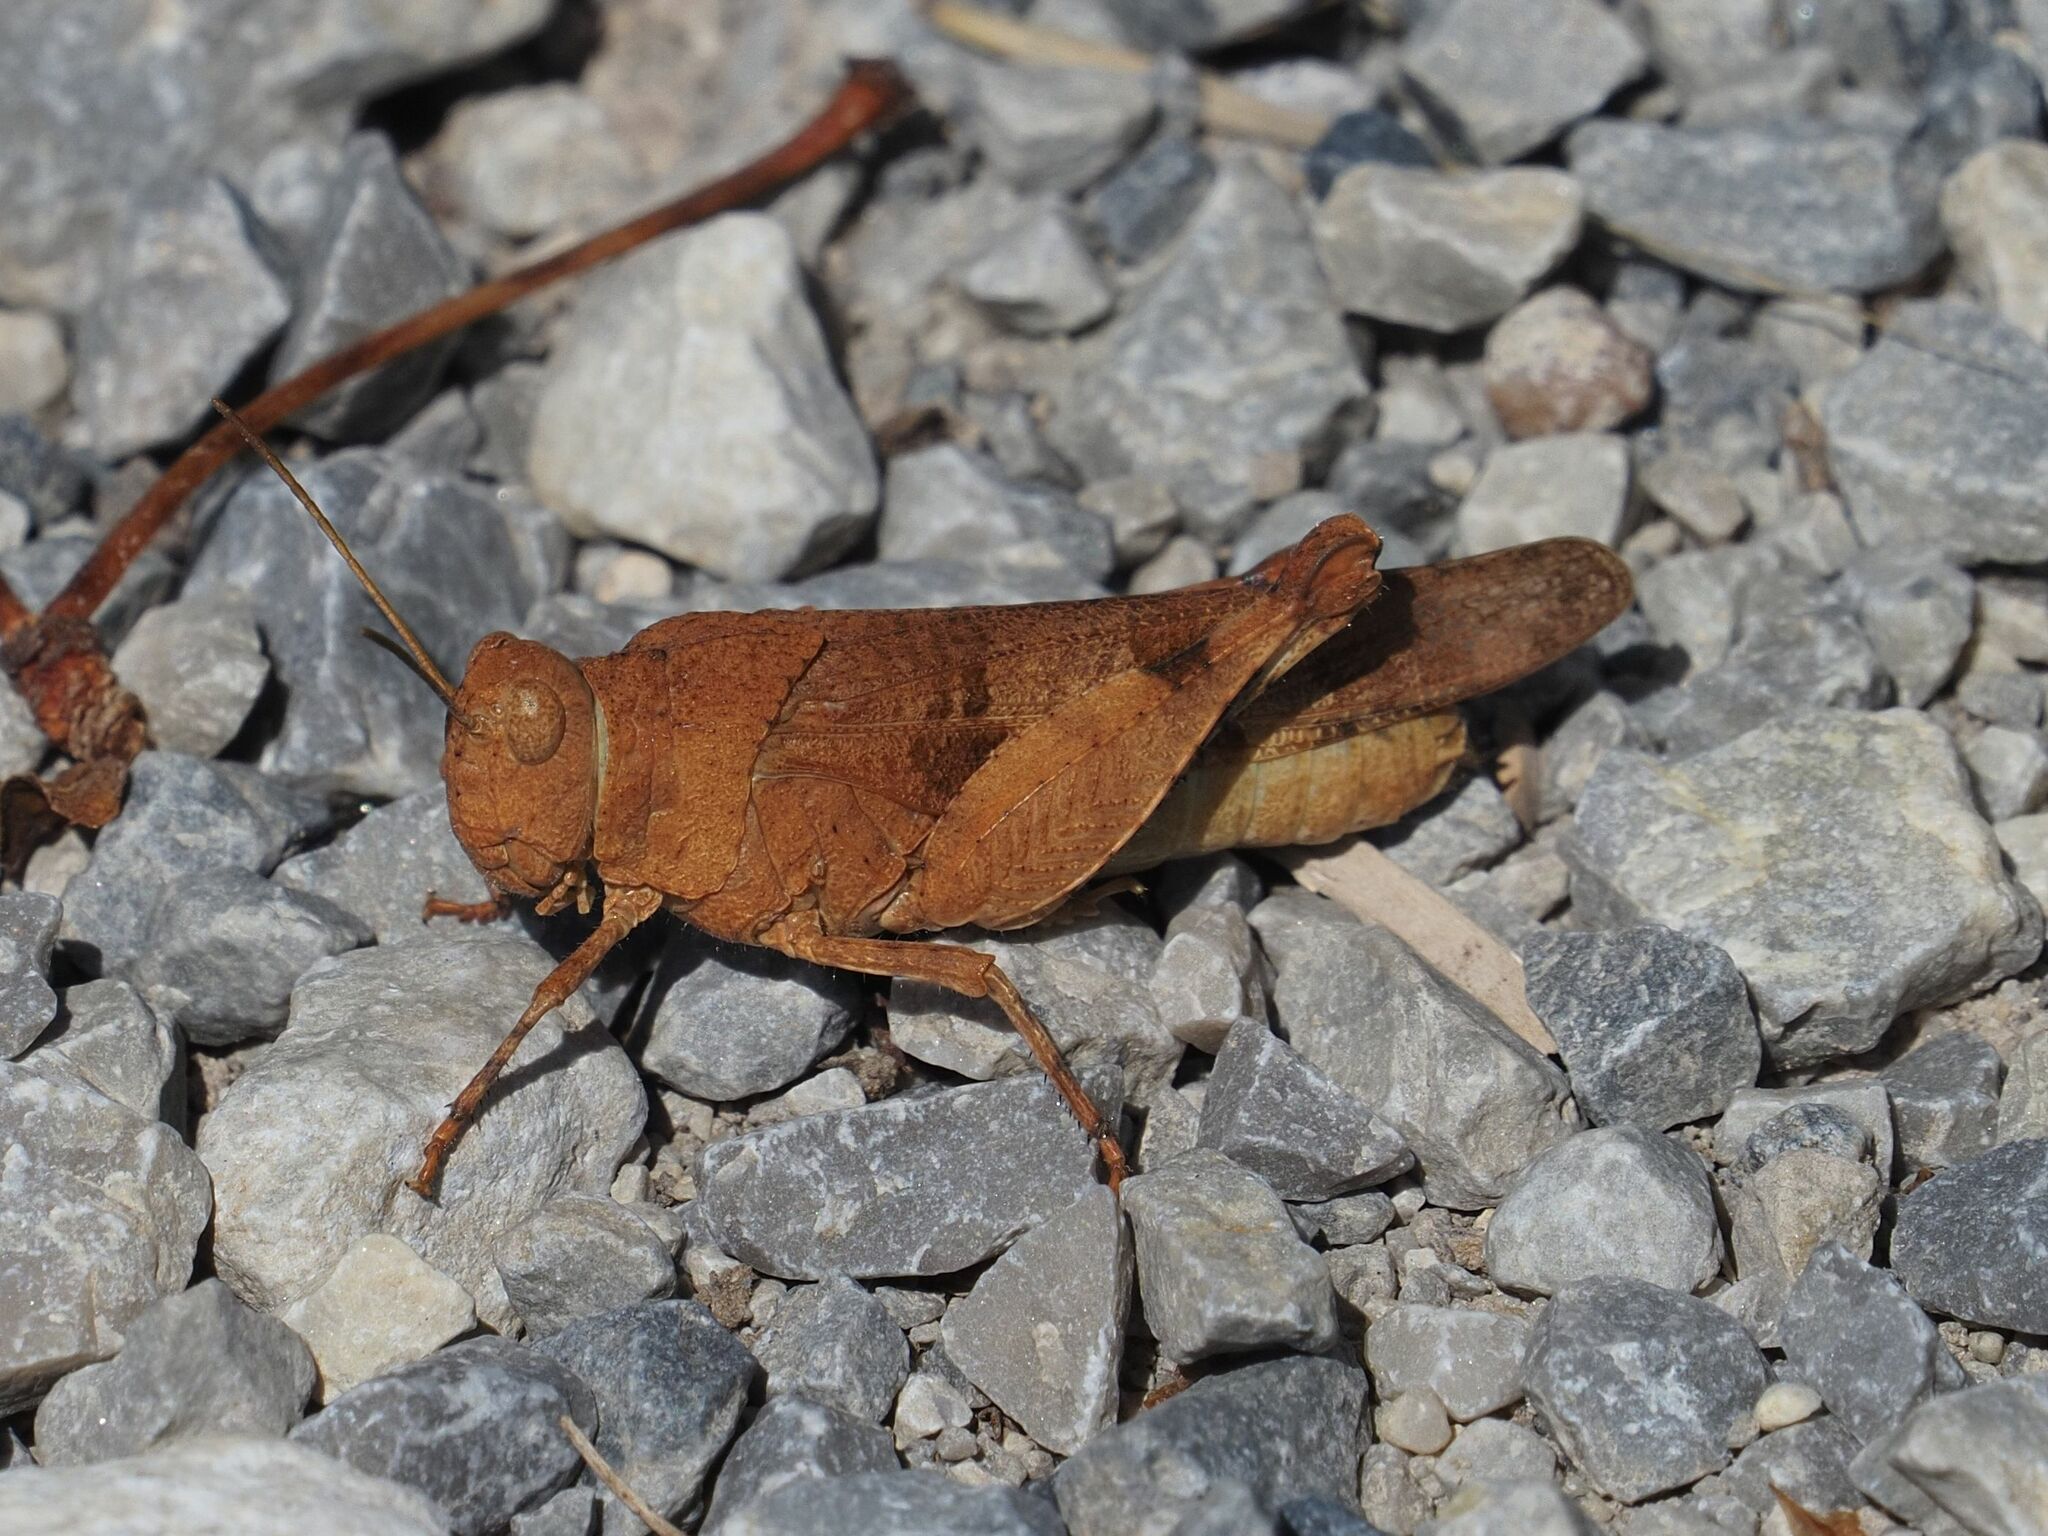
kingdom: Animalia
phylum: Arthropoda
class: Insecta
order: Orthoptera
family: Acrididae
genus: Oedipoda
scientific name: Oedipoda caerulescens
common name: Blue-winged grasshopper
